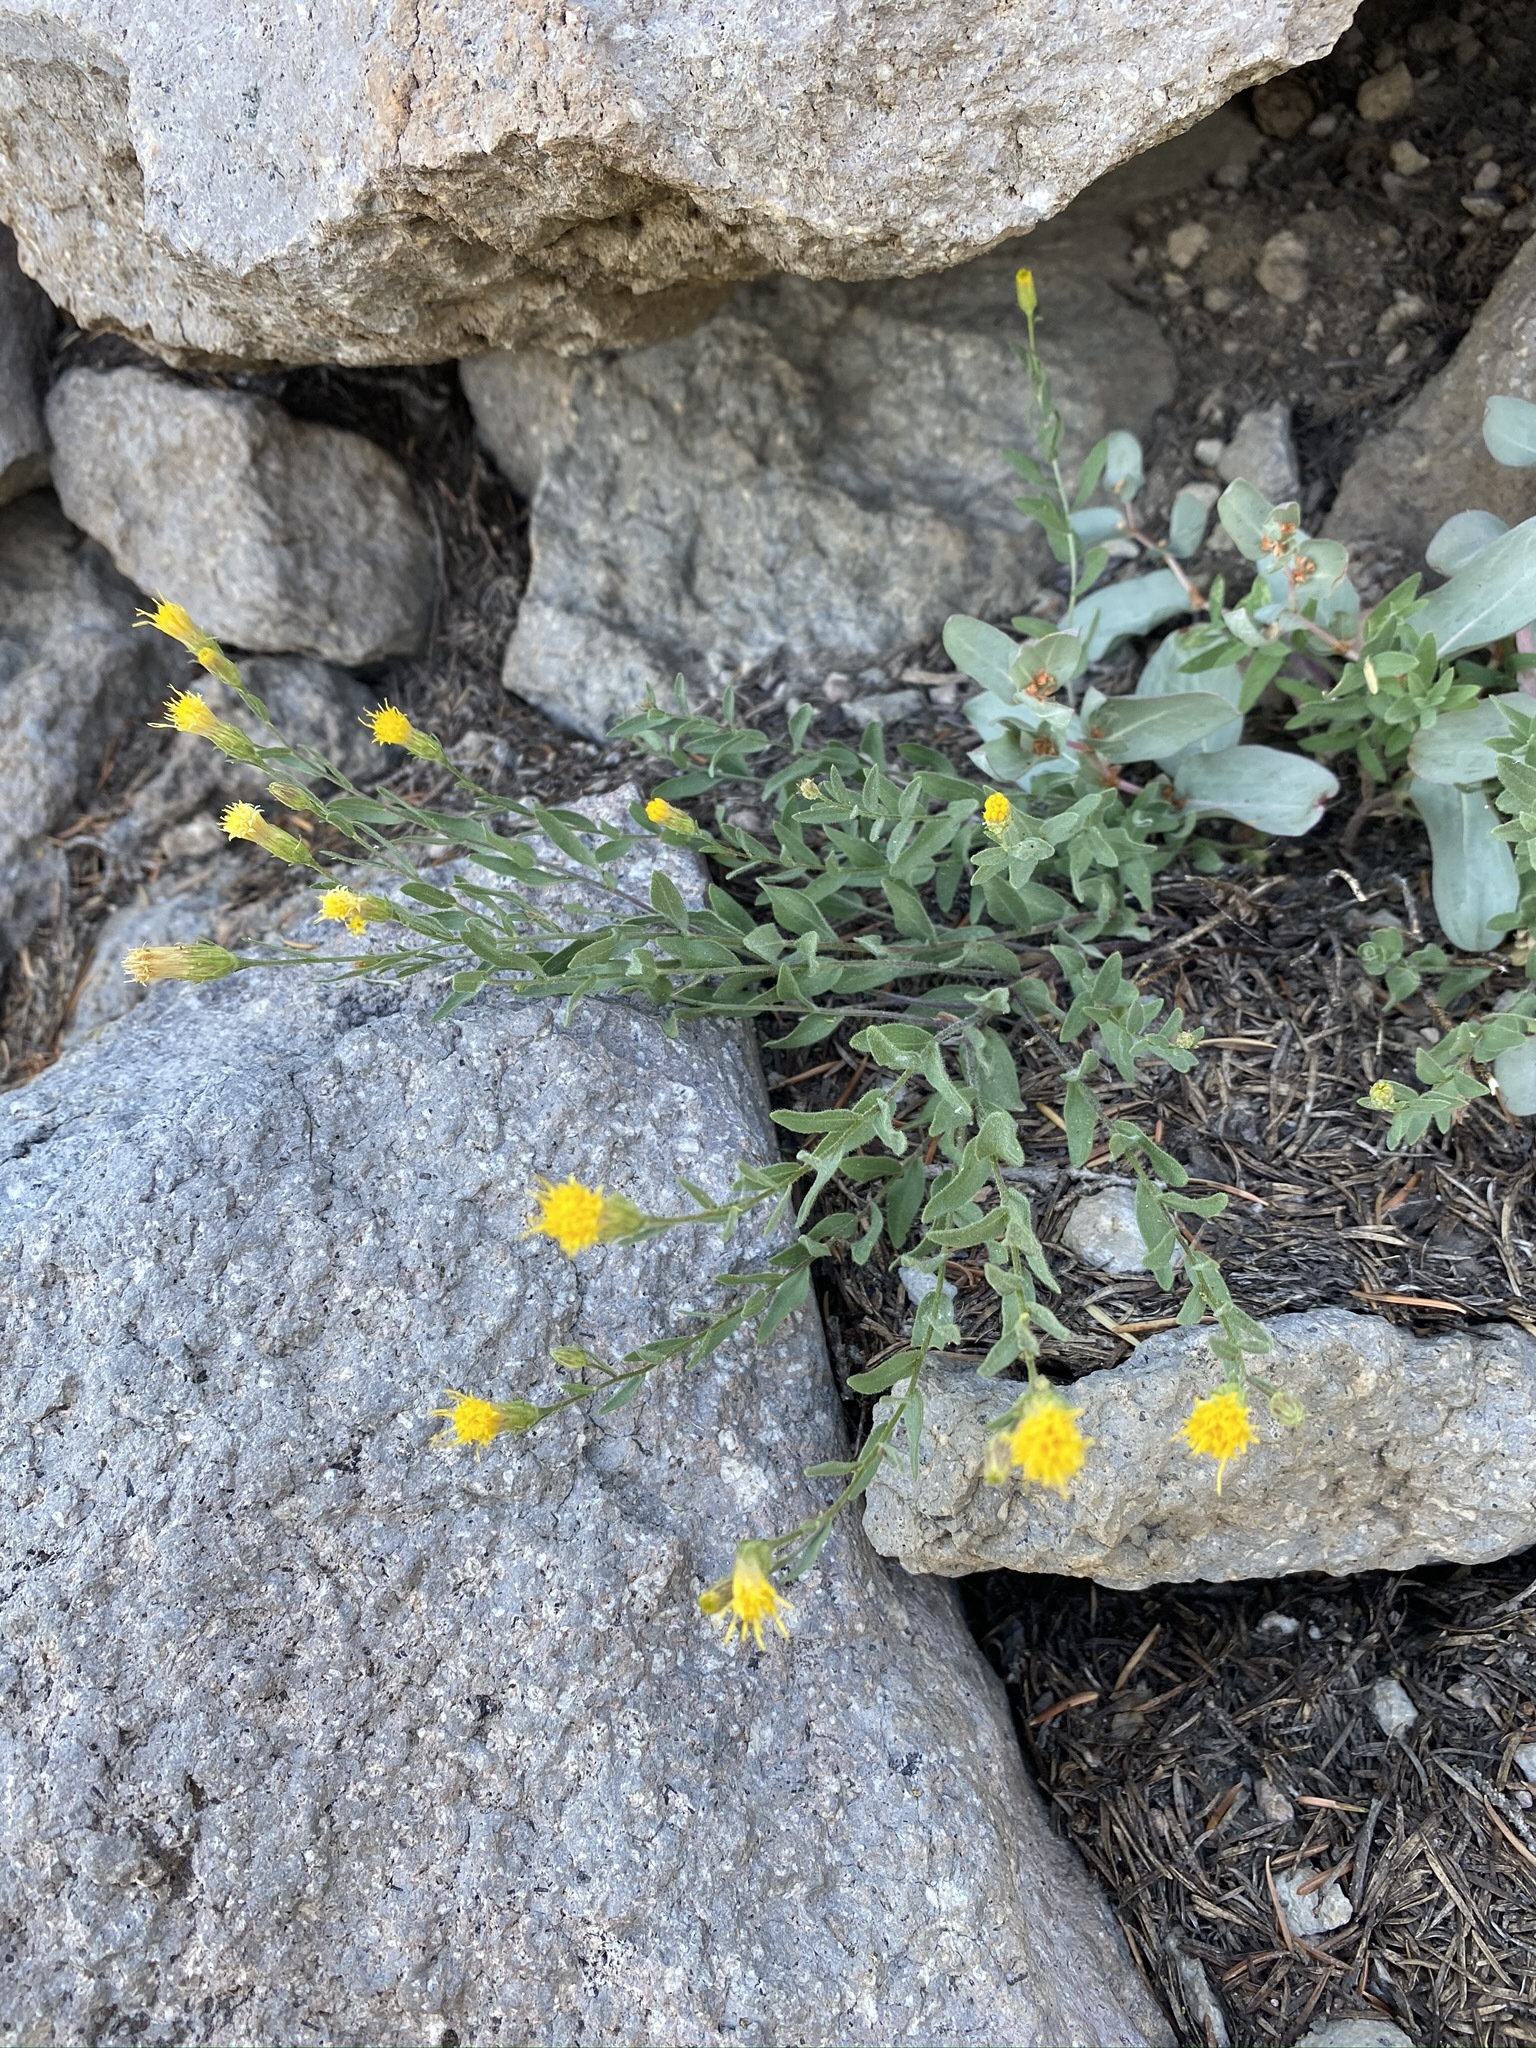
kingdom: Plantae
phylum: Tracheophyta
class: Magnoliopsida
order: Asterales
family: Asteraceae
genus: Eucephalus
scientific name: Eucephalus breweri
